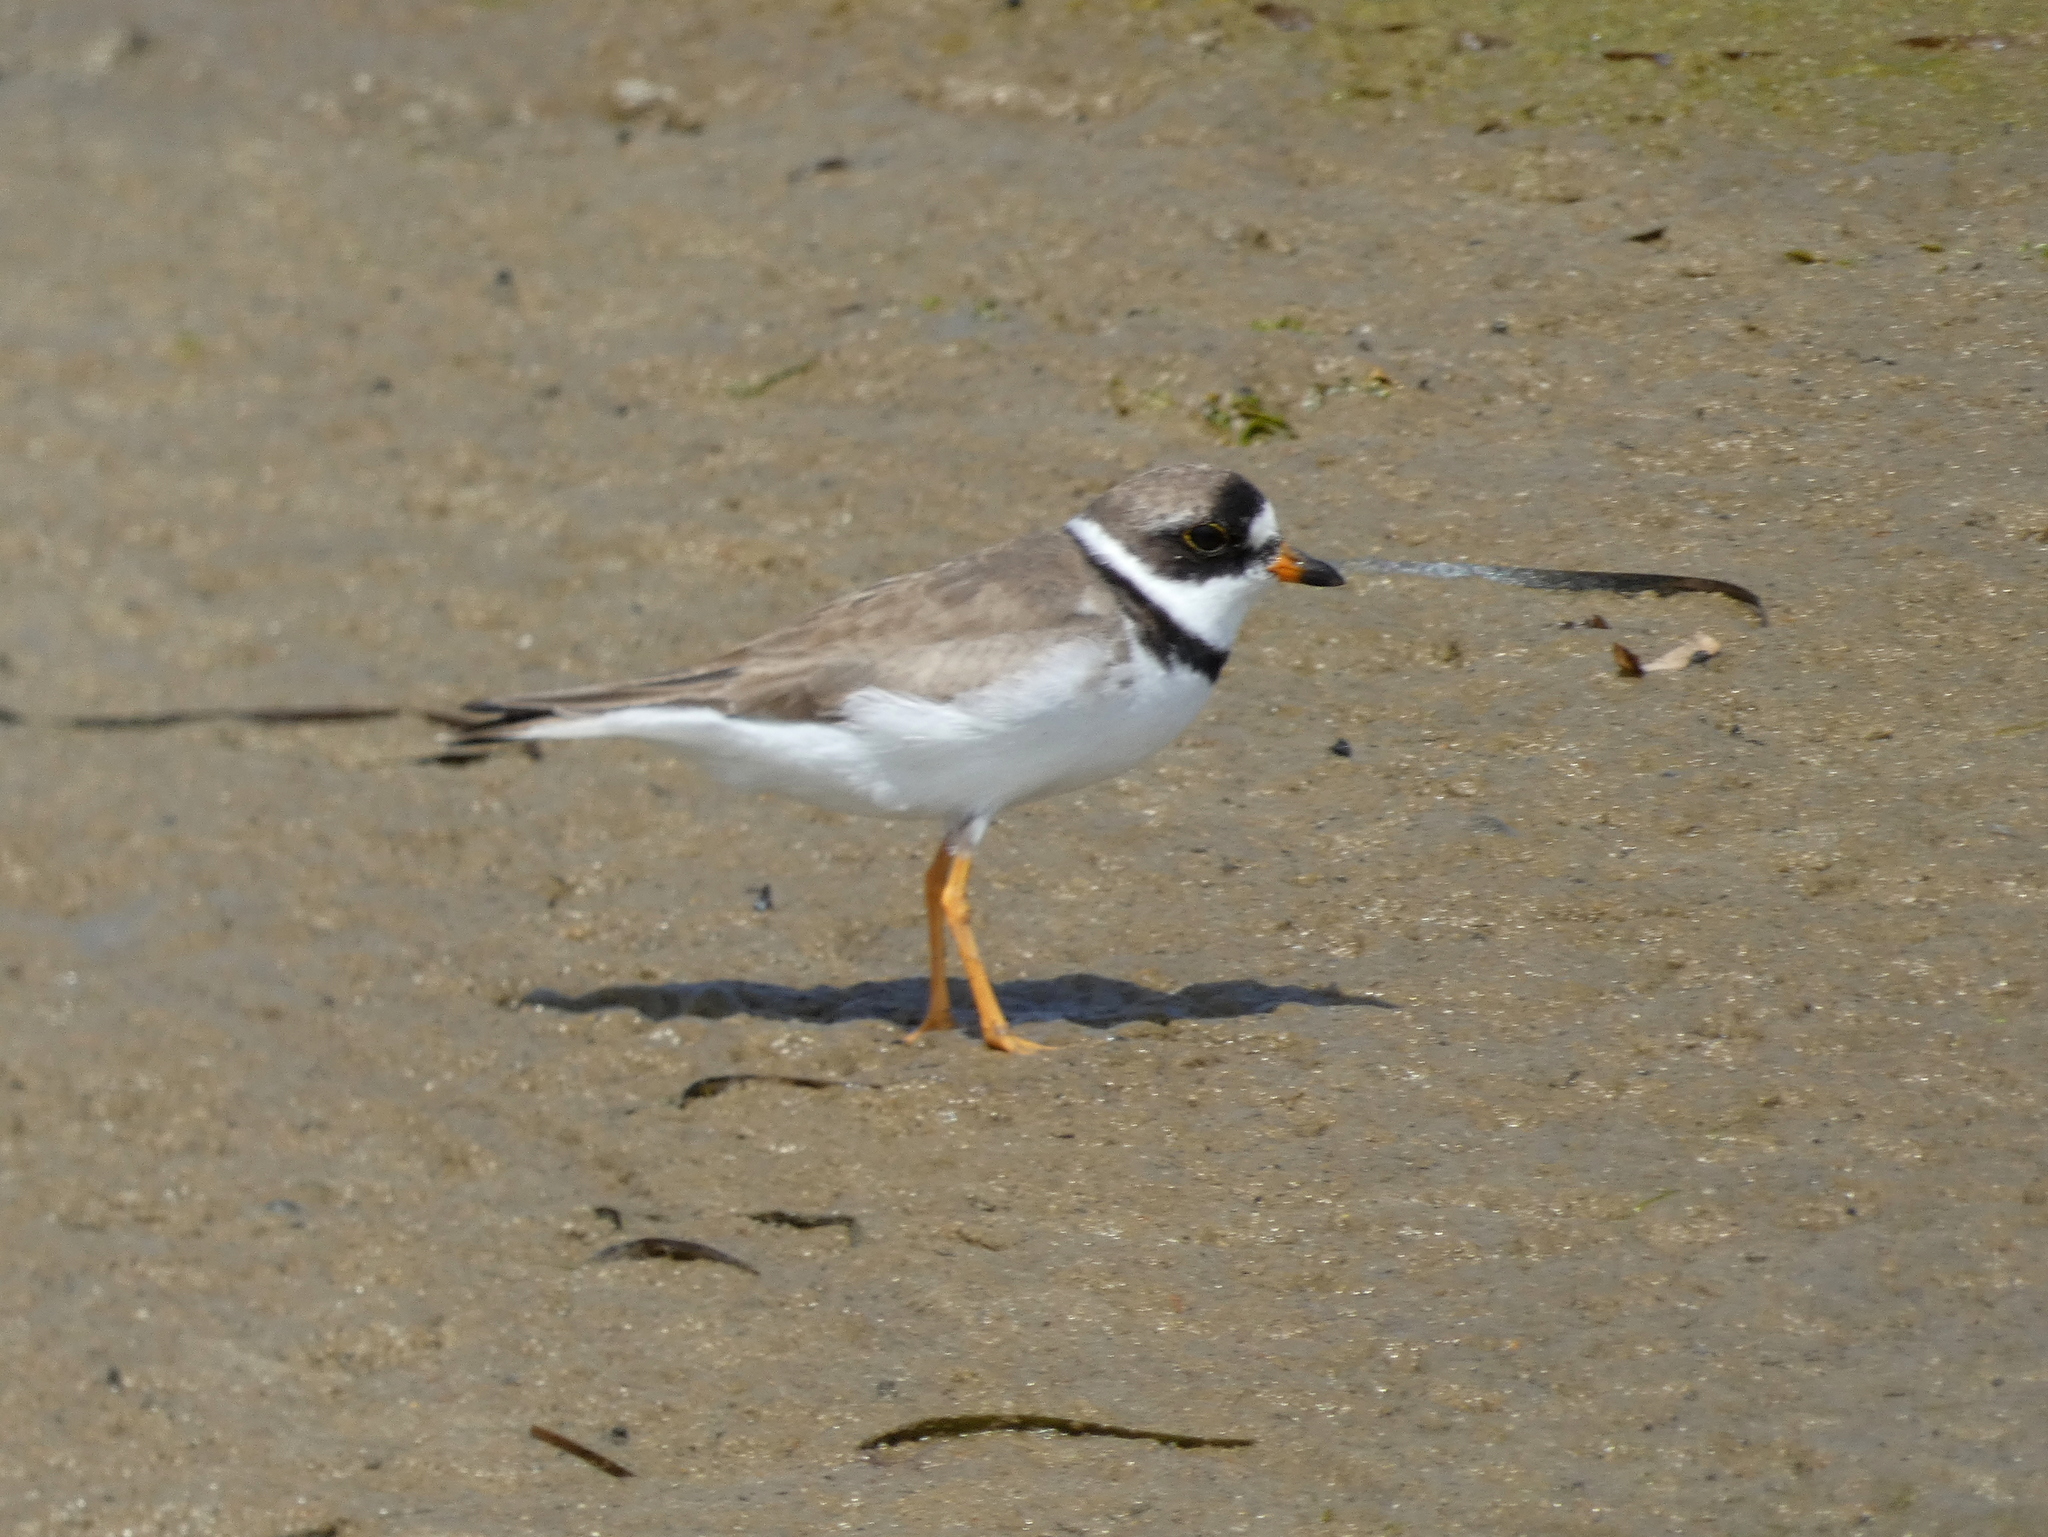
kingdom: Animalia
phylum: Chordata
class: Aves
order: Charadriiformes
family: Charadriidae
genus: Charadrius
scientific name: Charadrius semipalmatus
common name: Semipalmated plover
